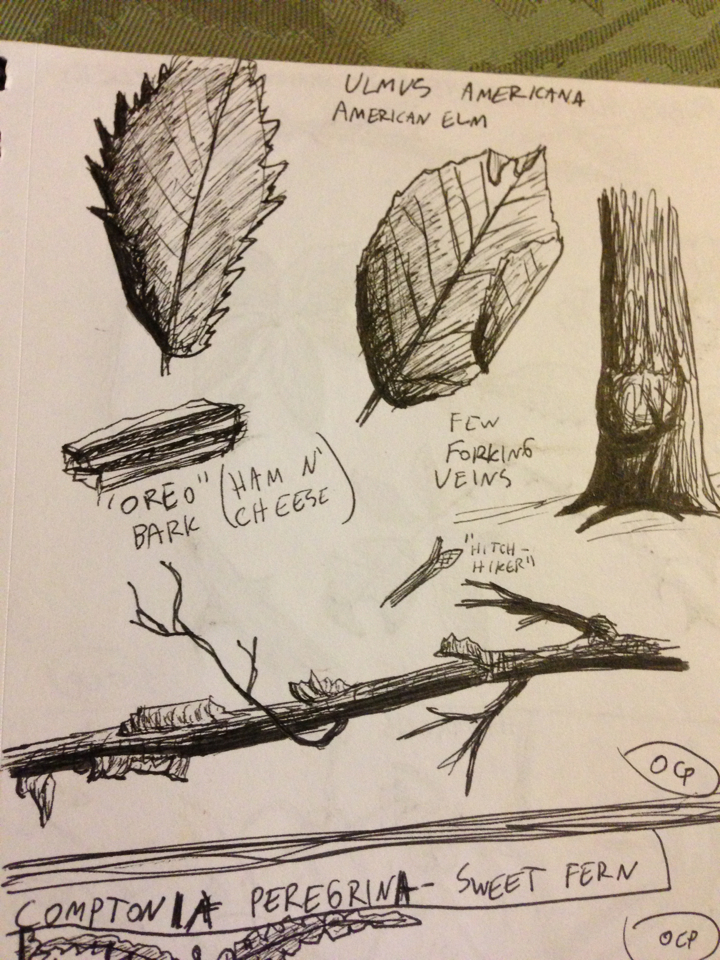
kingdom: Plantae
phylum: Tracheophyta
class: Magnoliopsida
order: Rosales
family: Ulmaceae
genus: Ulmus
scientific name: Ulmus americana
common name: American elm
